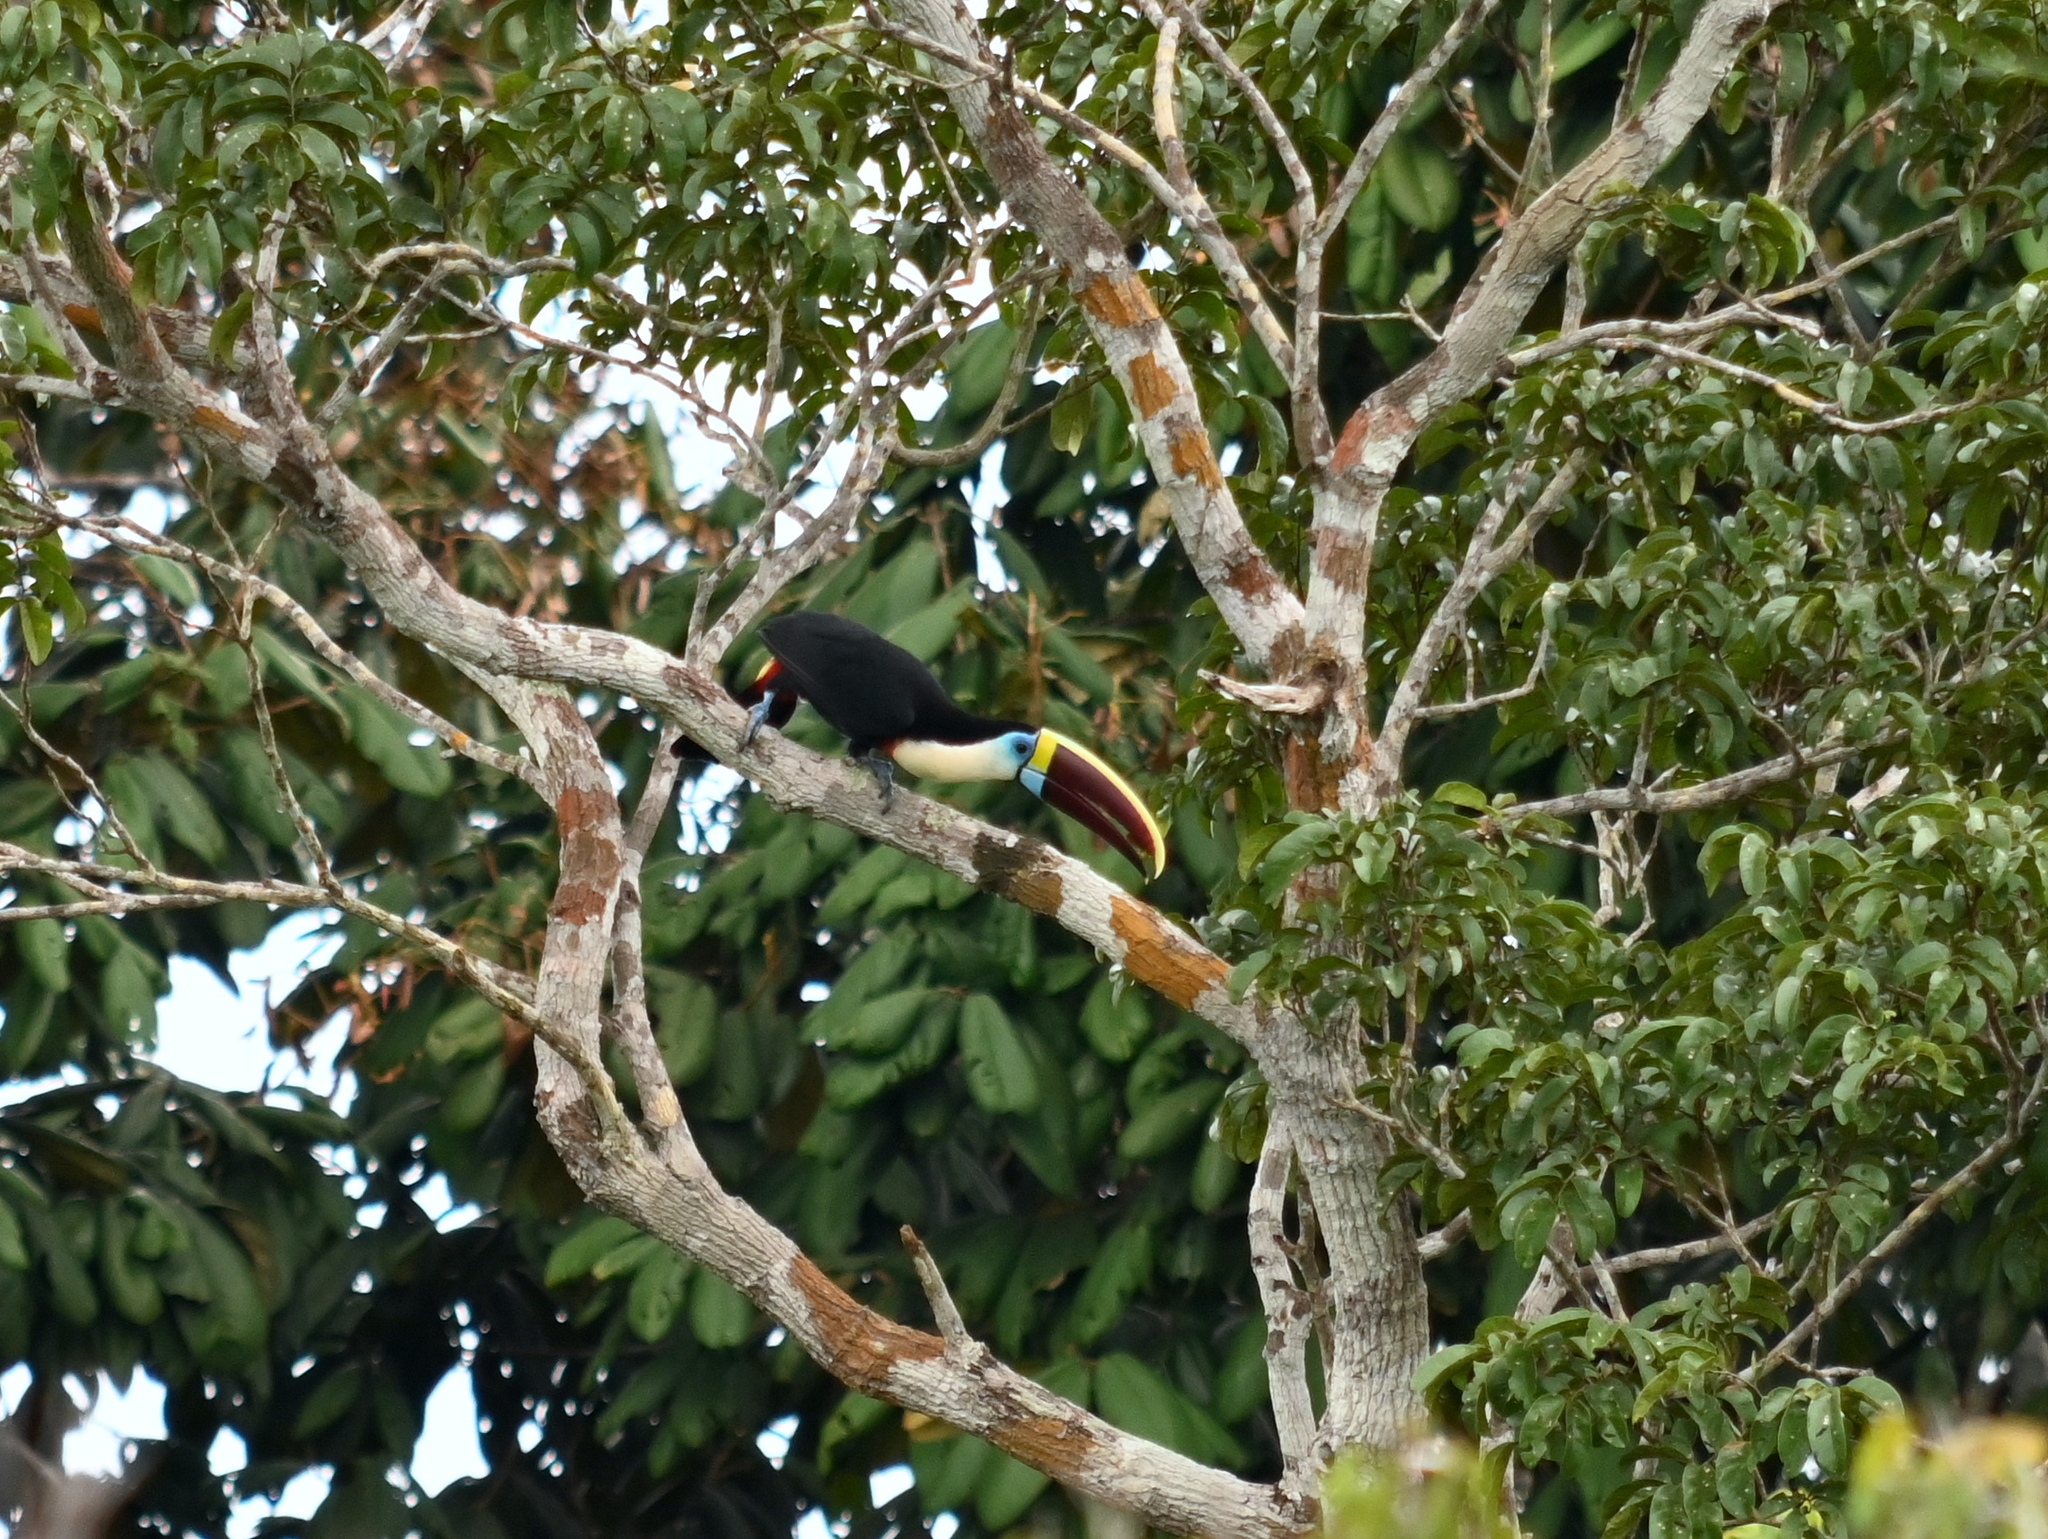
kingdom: Animalia
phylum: Chordata
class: Aves
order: Piciformes
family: Ramphastidae
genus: Ramphastos
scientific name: Ramphastos tucanus
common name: White-throated toucan
